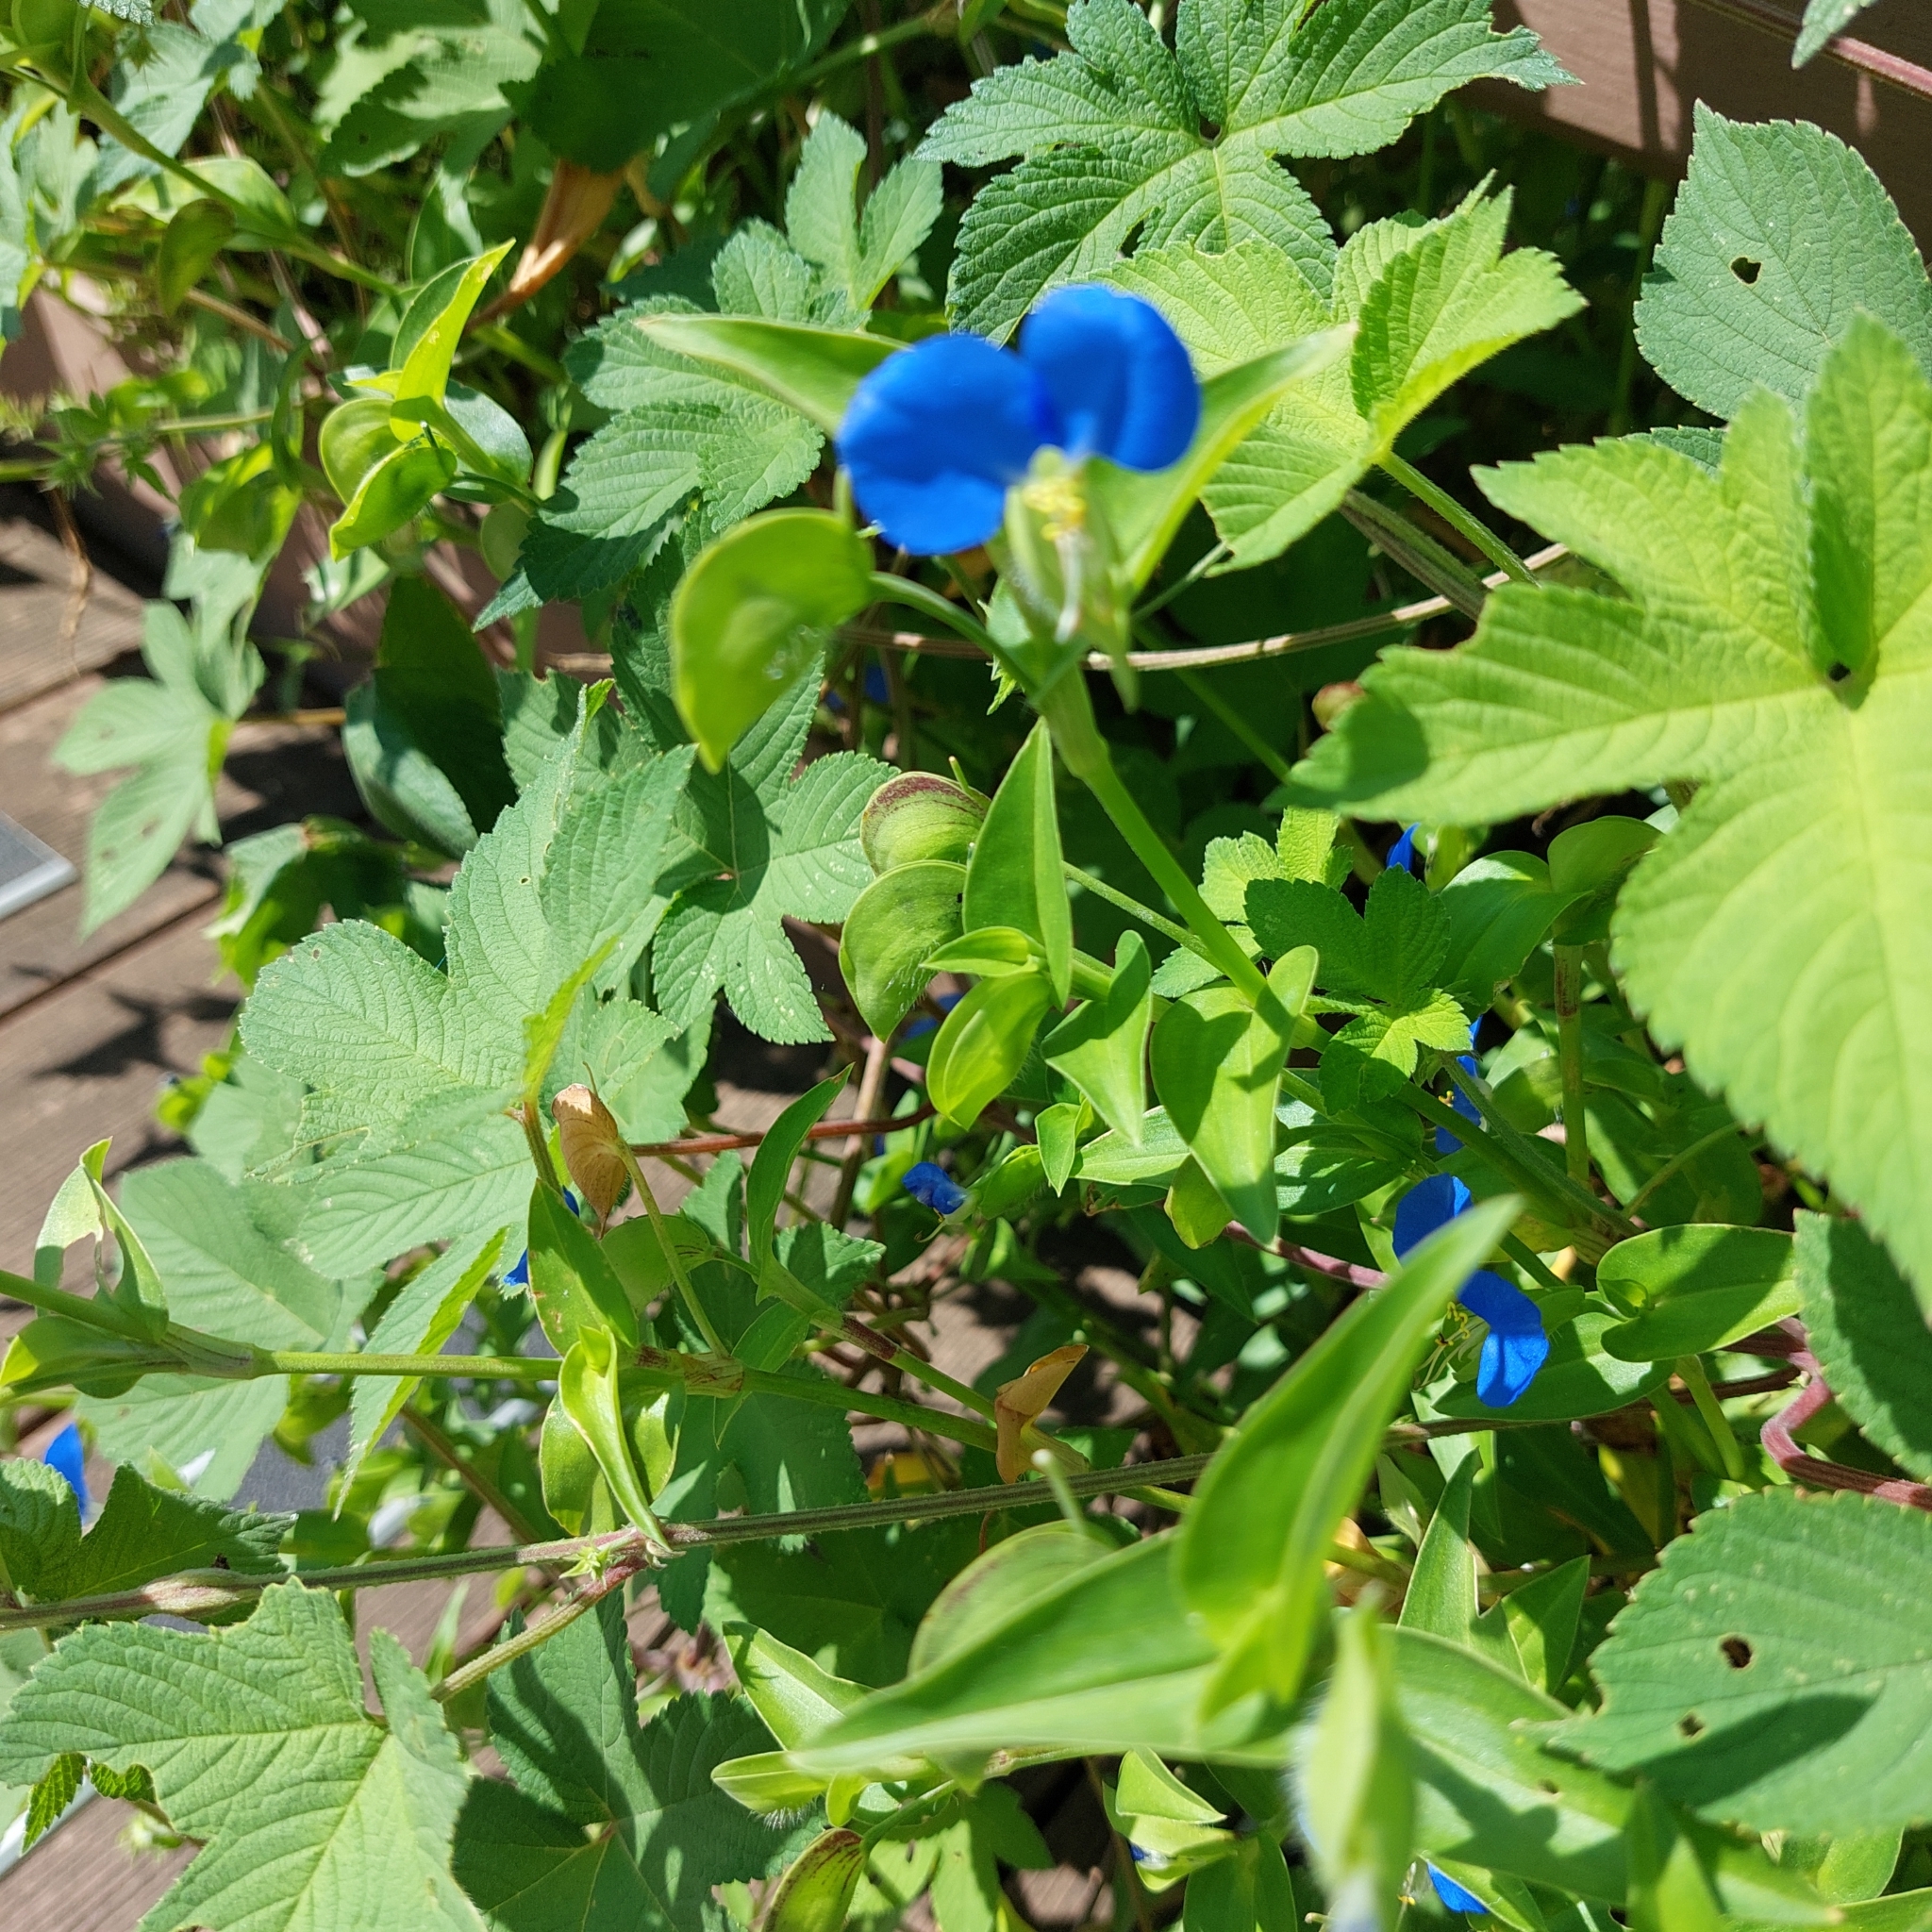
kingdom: Plantae
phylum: Tracheophyta
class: Liliopsida
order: Commelinales
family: Commelinaceae
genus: Commelina
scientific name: Commelina communis
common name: Asiatic dayflower
